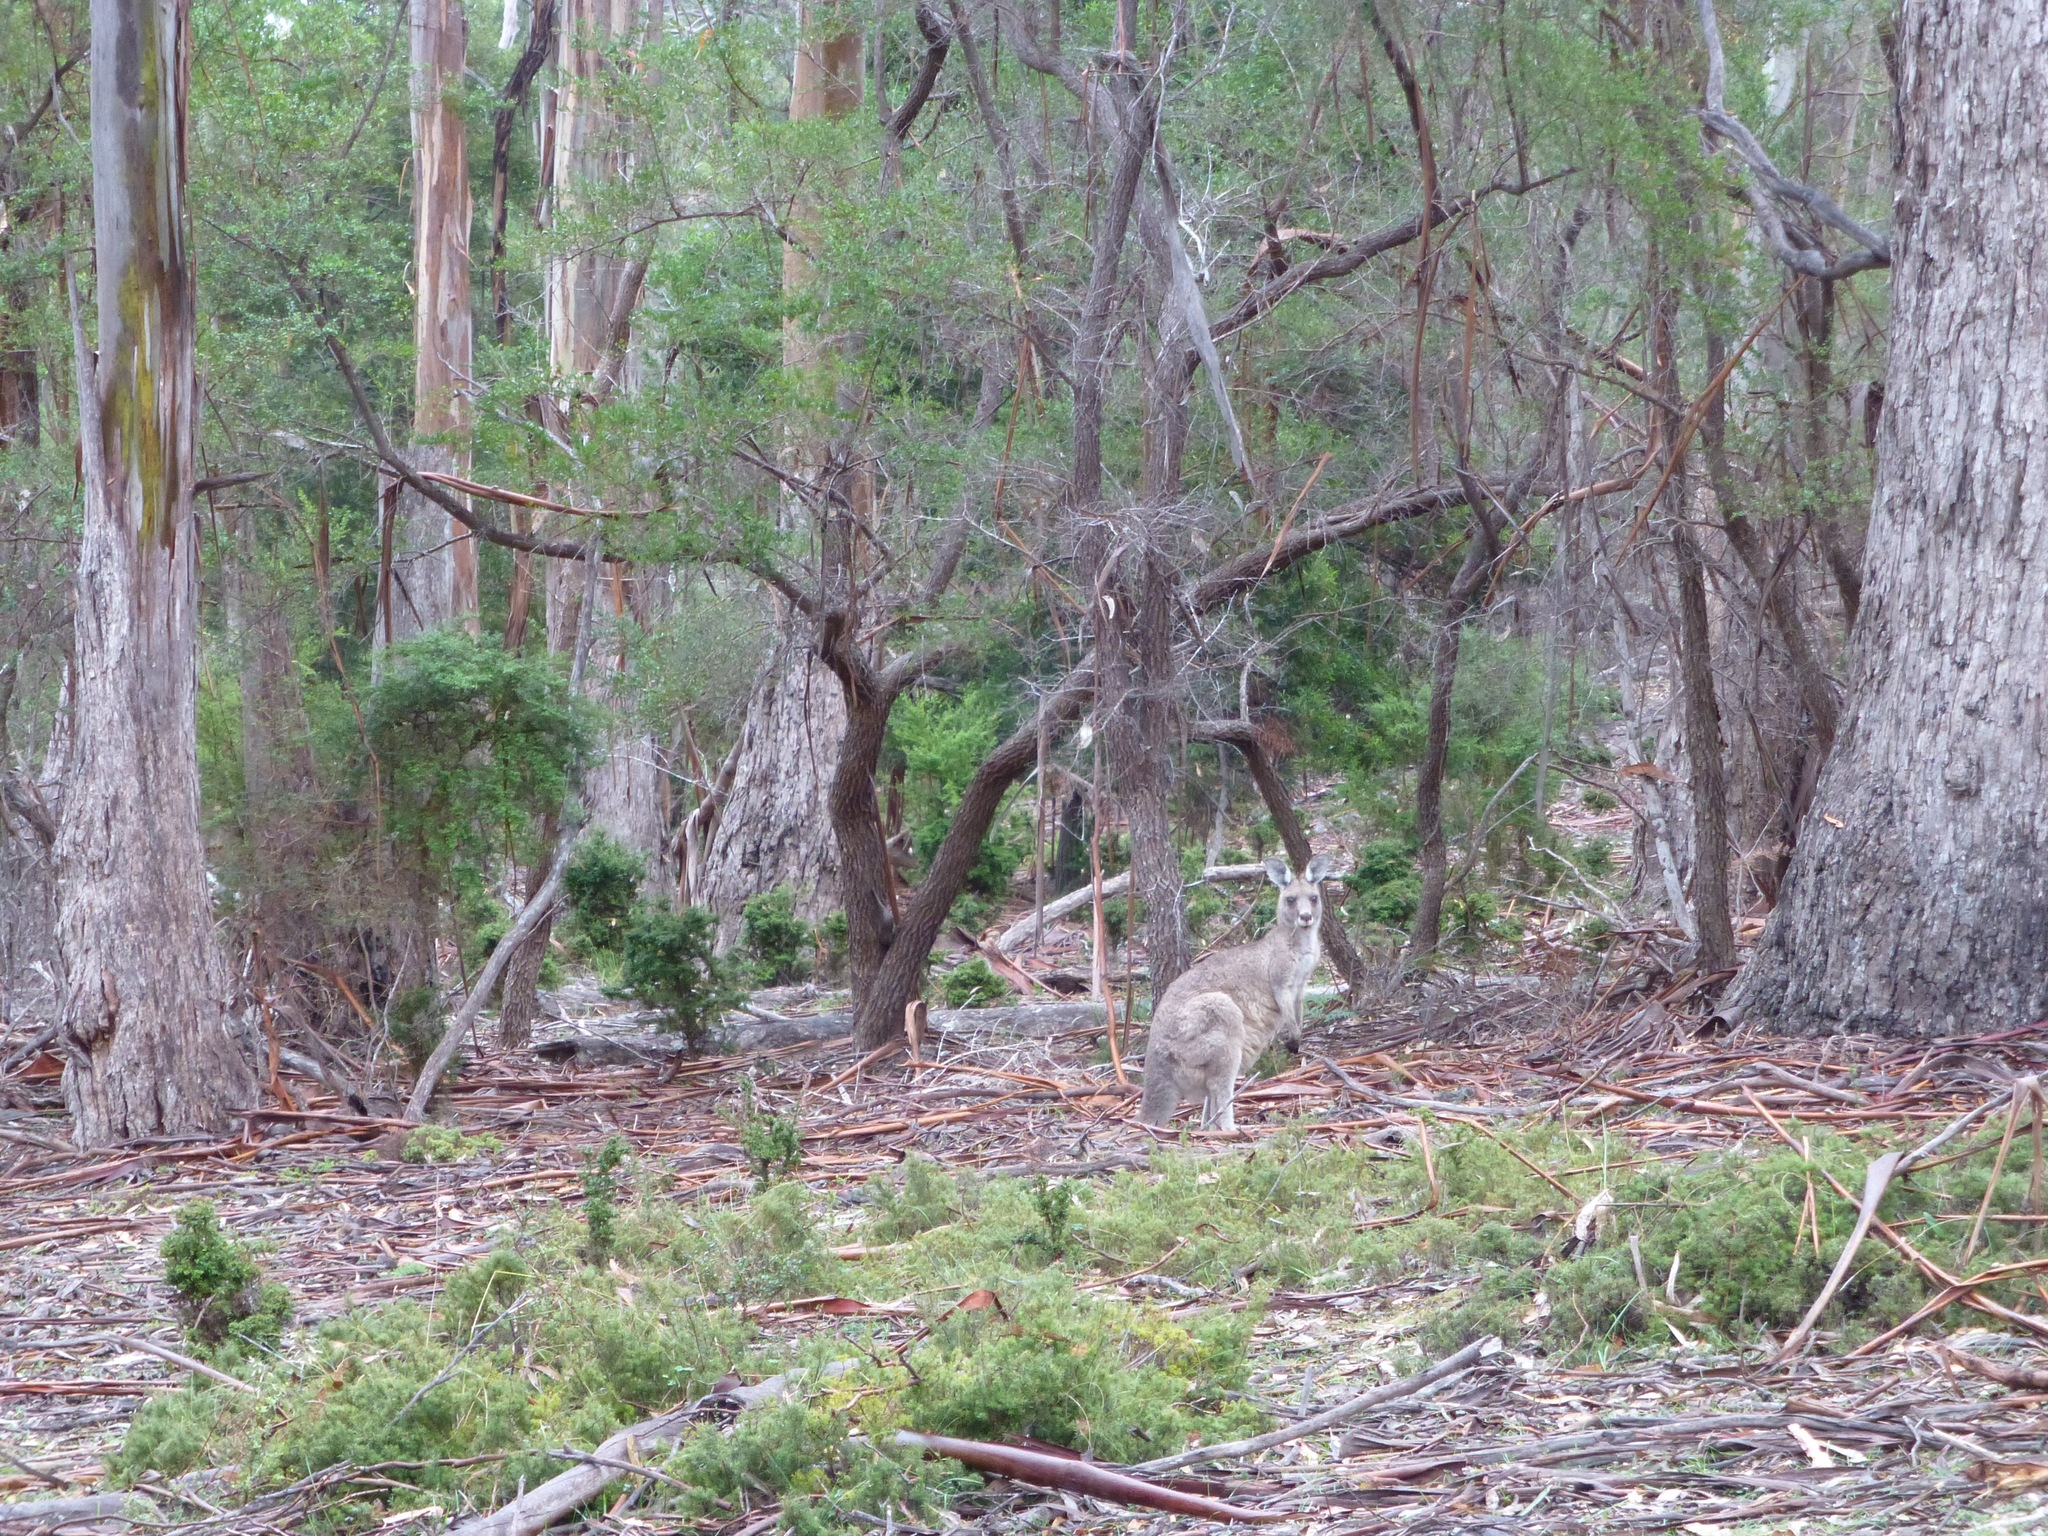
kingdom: Animalia
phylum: Chordata
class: Mammalia
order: Diprotodontia
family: Macropodidae
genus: Macropus
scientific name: Macropus giganteus
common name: Eastern grey kangaroo
